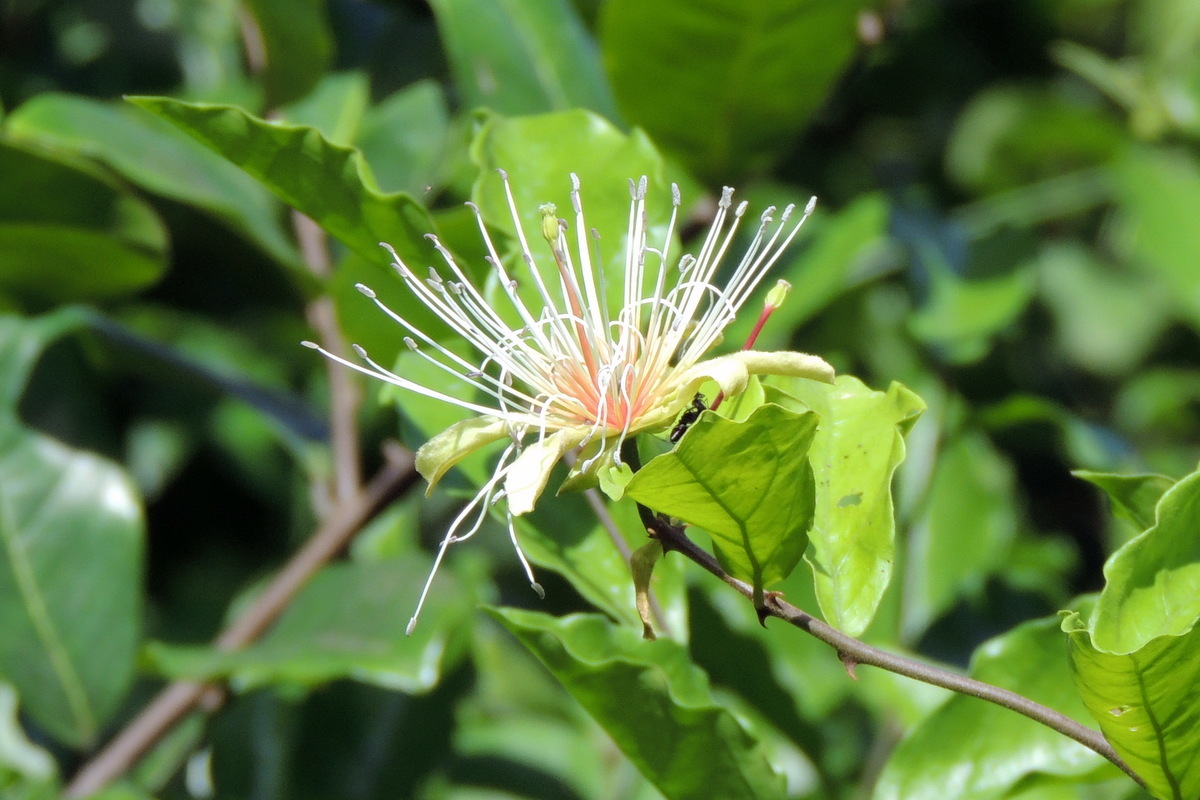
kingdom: Plantae
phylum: Tracheophyta
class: Magnoliopsida
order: Brassicales
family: Capparaceae
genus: Capparis
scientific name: Capparis erythrocarpos
